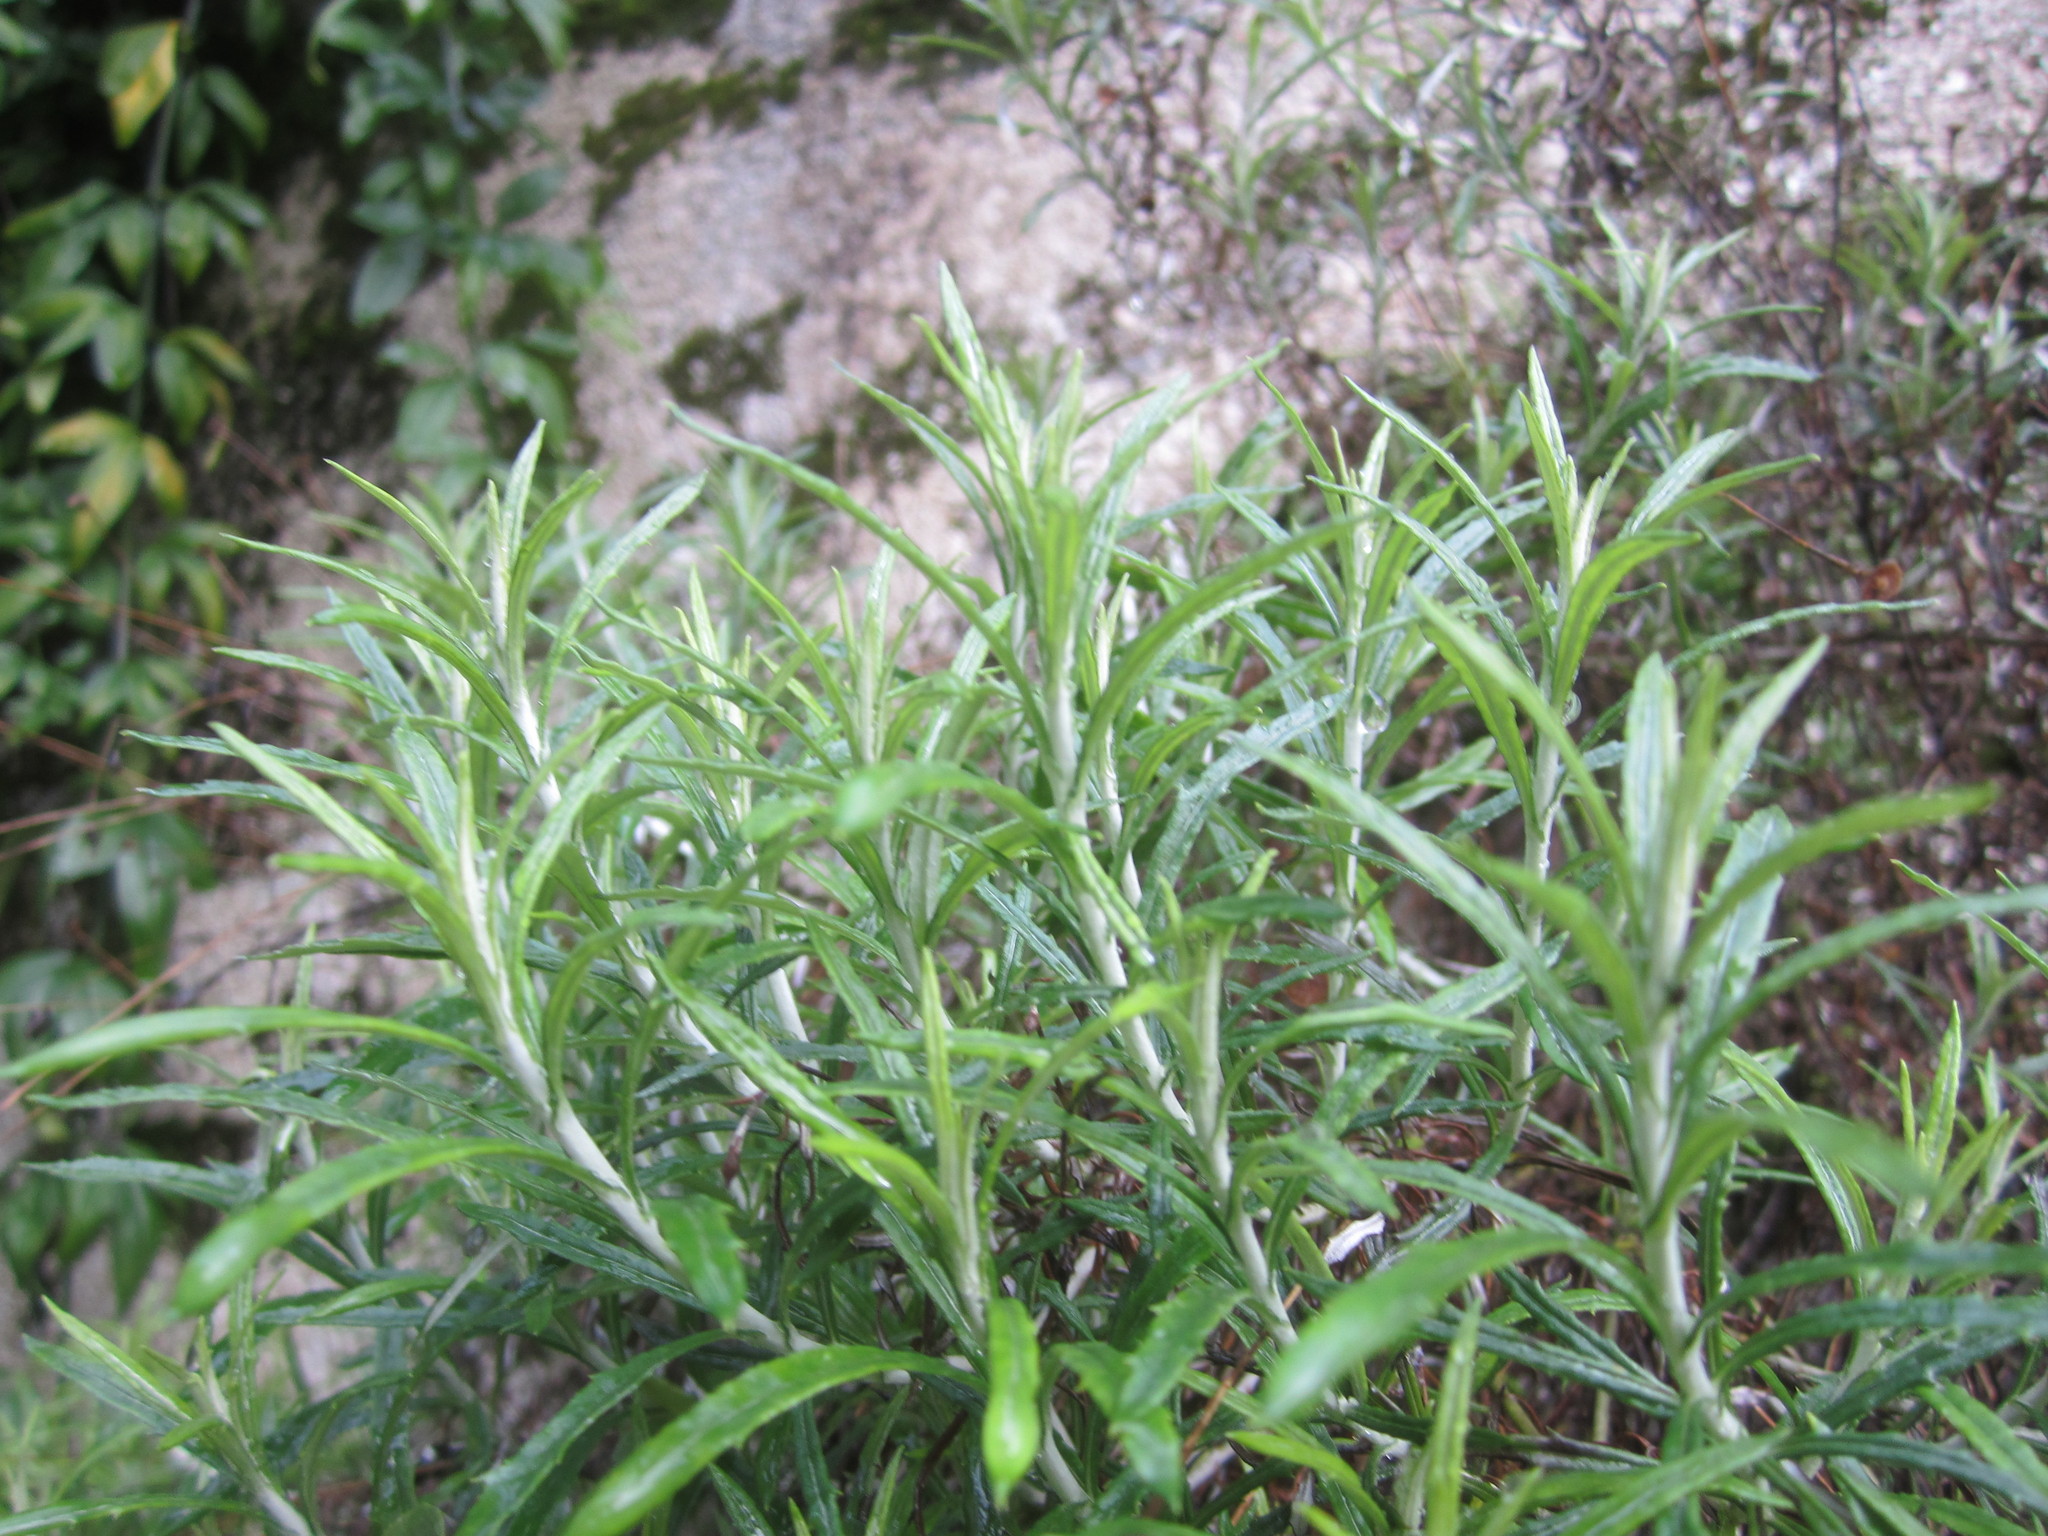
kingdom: Plantae
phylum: Tracheophyta
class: Magnoliopsida
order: Asterales
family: Asteraceae
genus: Phagnalon
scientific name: Phagnalon saxatile
